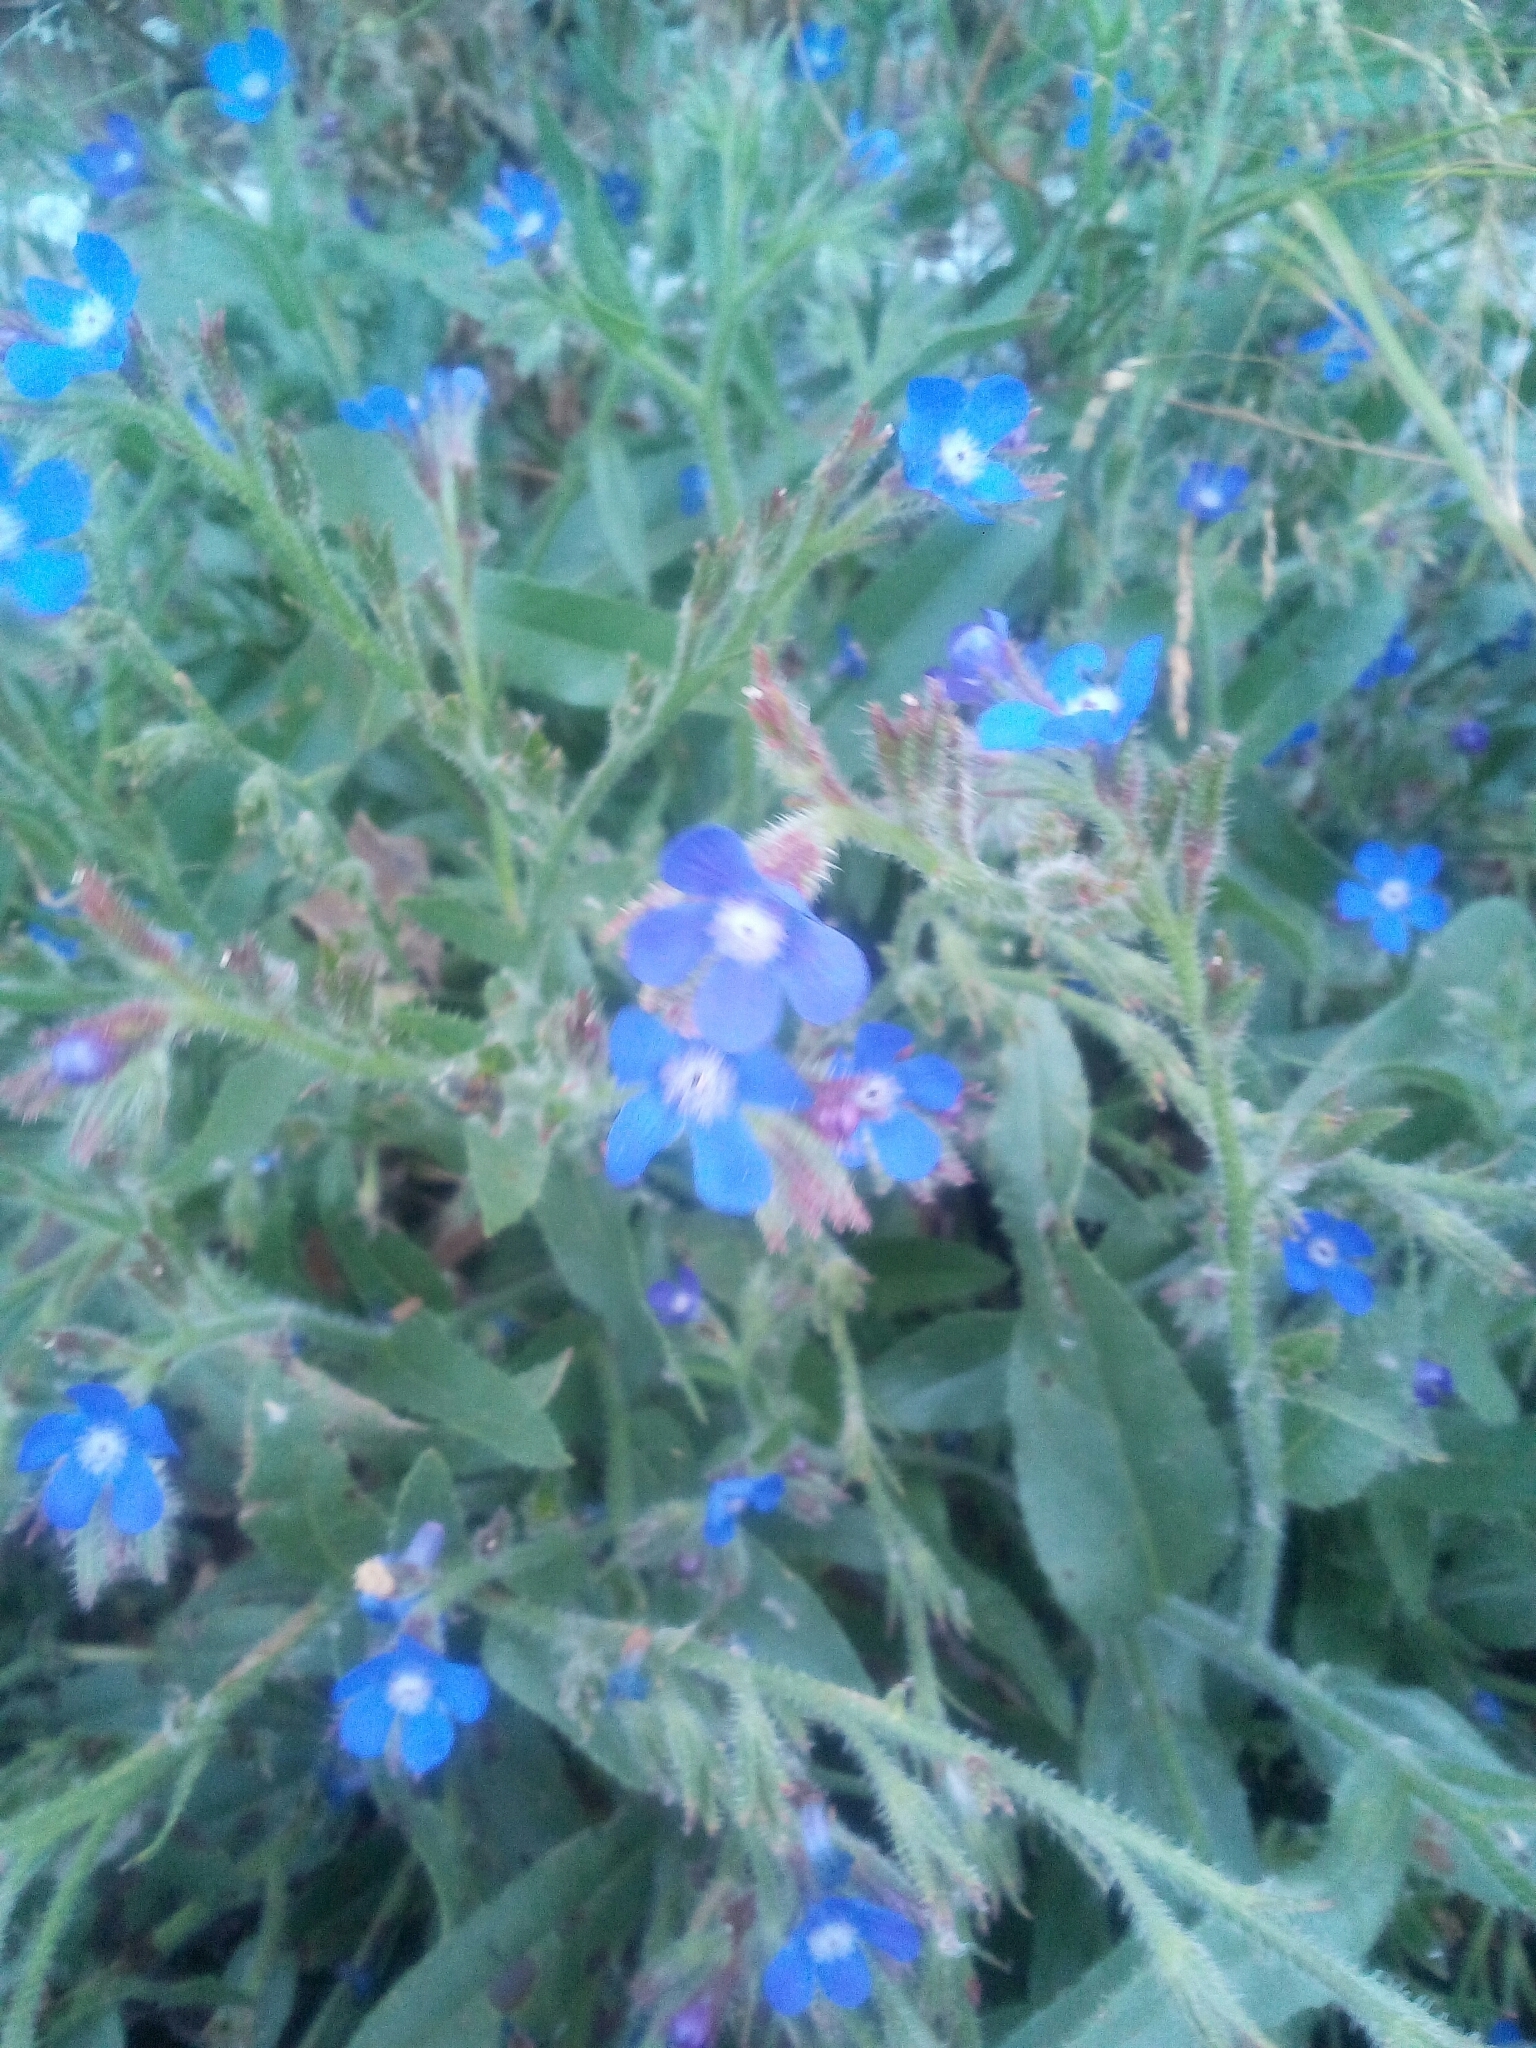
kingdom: Plantae
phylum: Tracheophyta
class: Magnoliopsida
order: Boraginales
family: Boraginaceae
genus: Anchusa
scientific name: Anchusa azurea
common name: Garden anchusa
